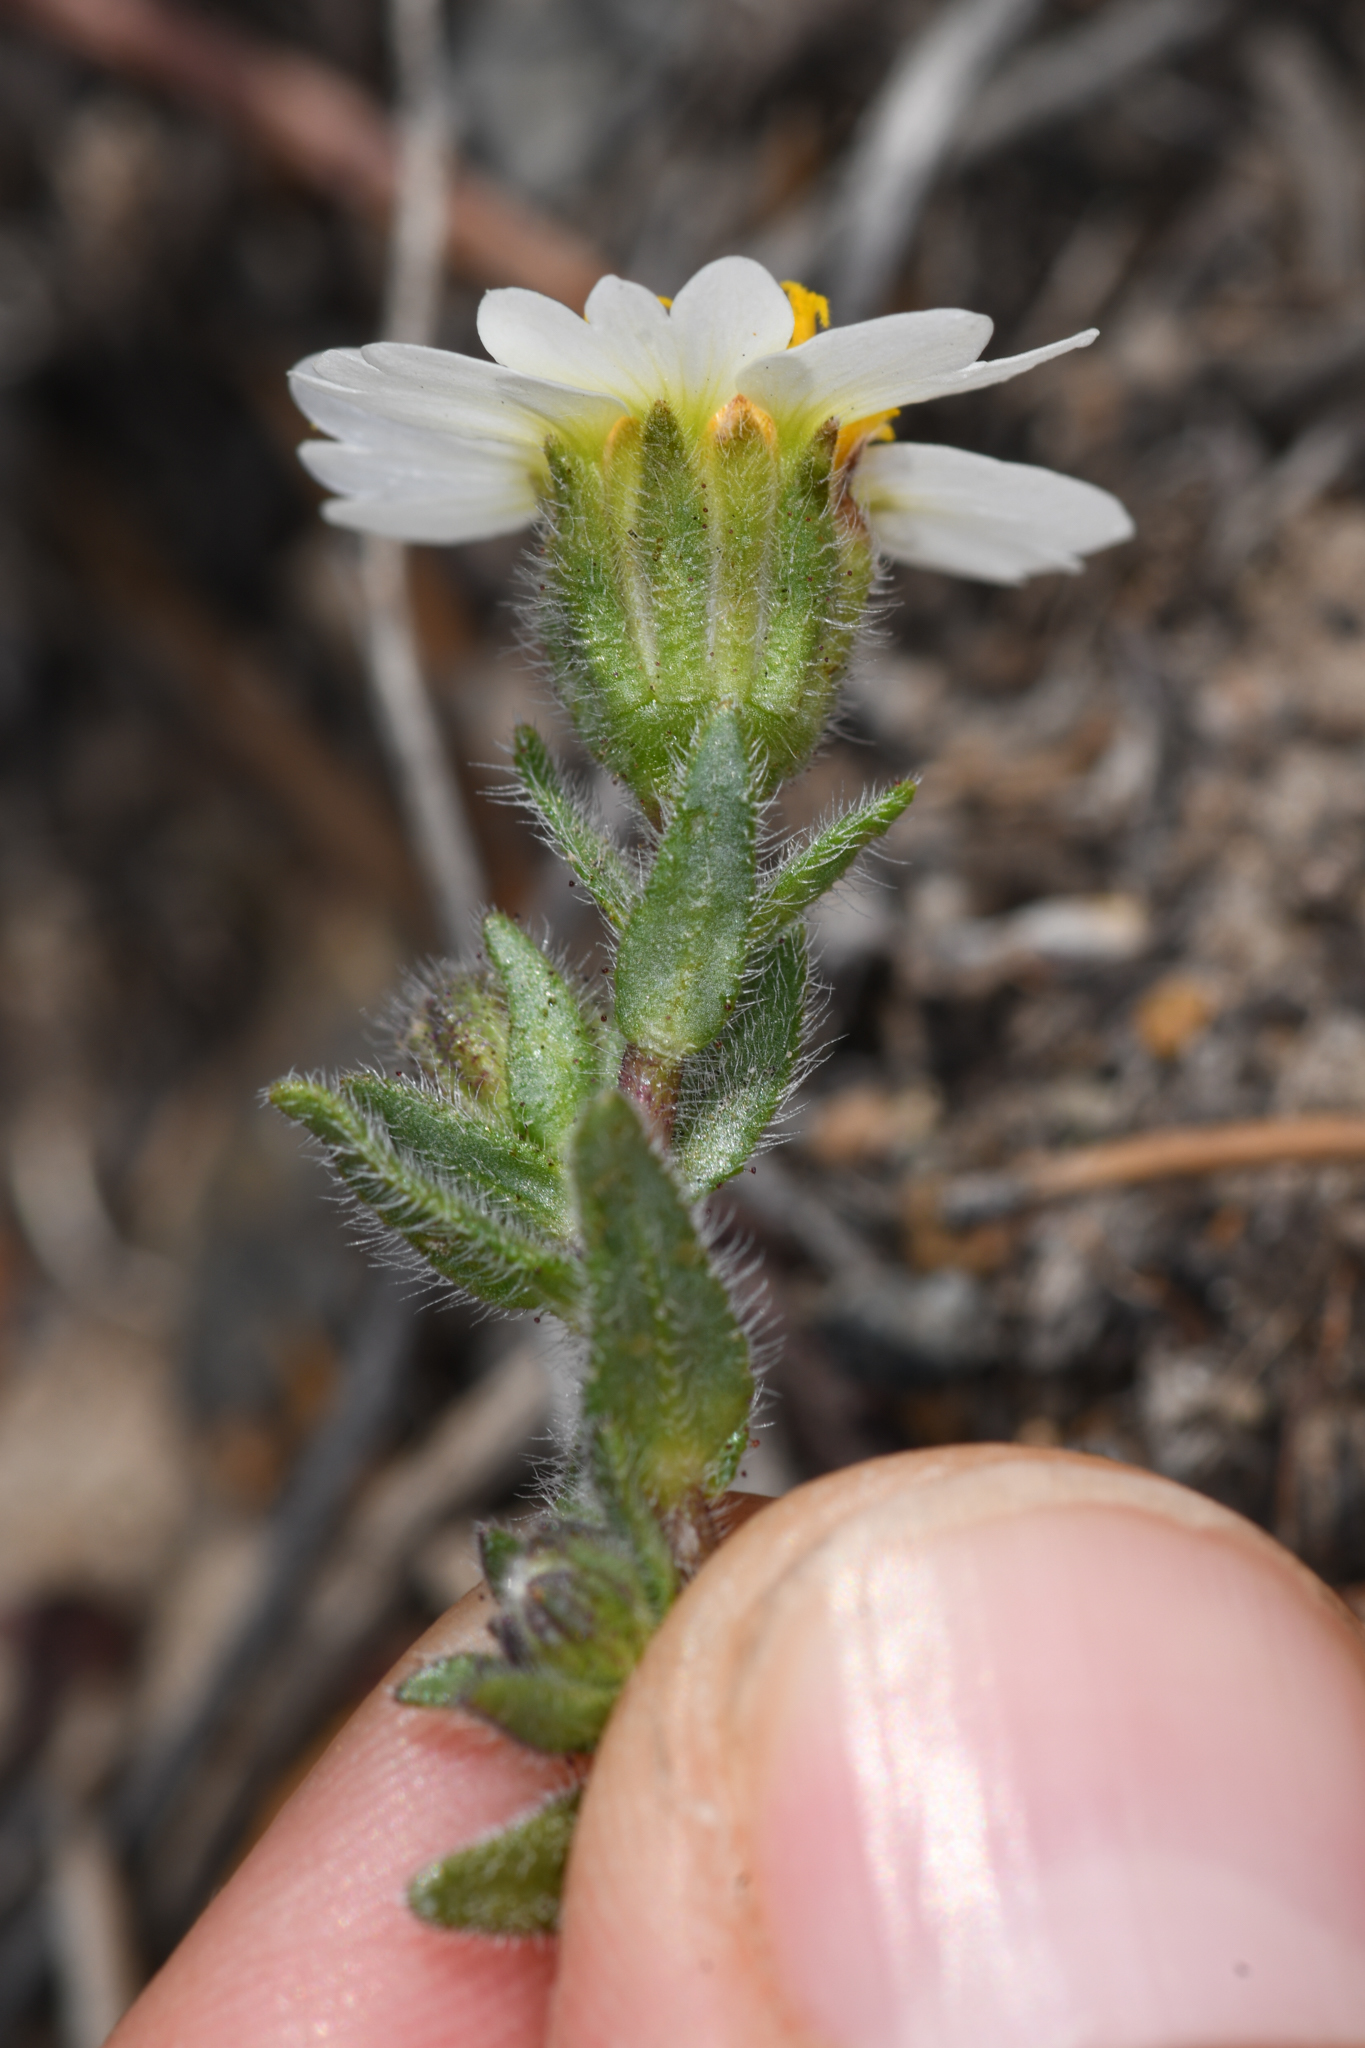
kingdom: Plantae
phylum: Tracheophyta
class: Magnoliopsida
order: Asterales
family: Asteraceae
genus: Layia
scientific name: Layia glandulosa
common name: White layia
